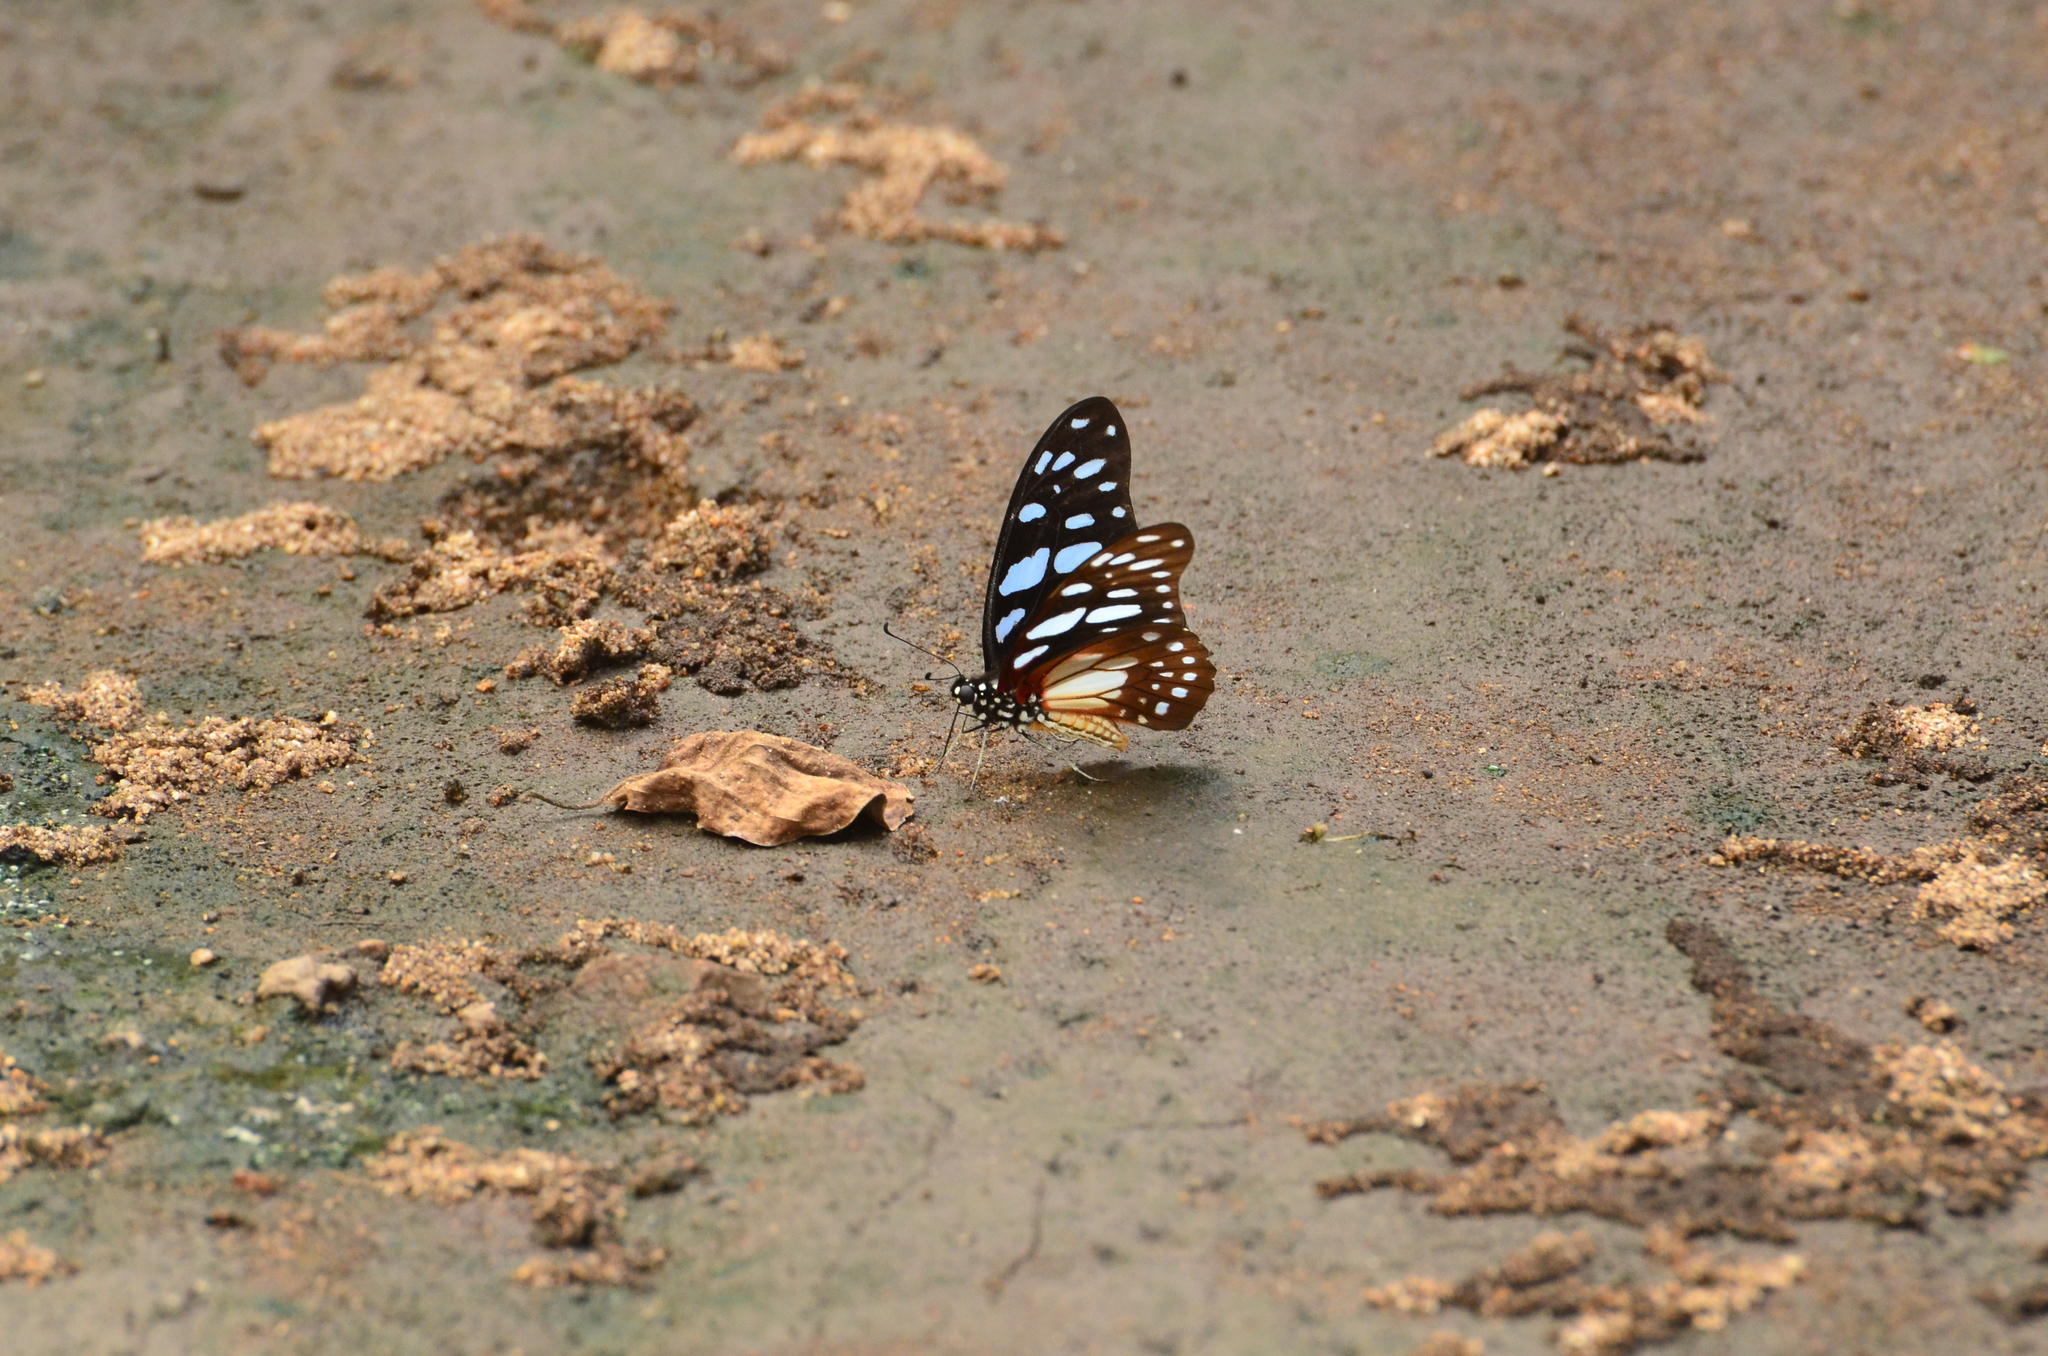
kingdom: Animalia
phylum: Arthropoda
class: Insecta
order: Lepidoptera
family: Papilionidae
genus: Graphium
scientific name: Graphium leonidas
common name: Common graphium
